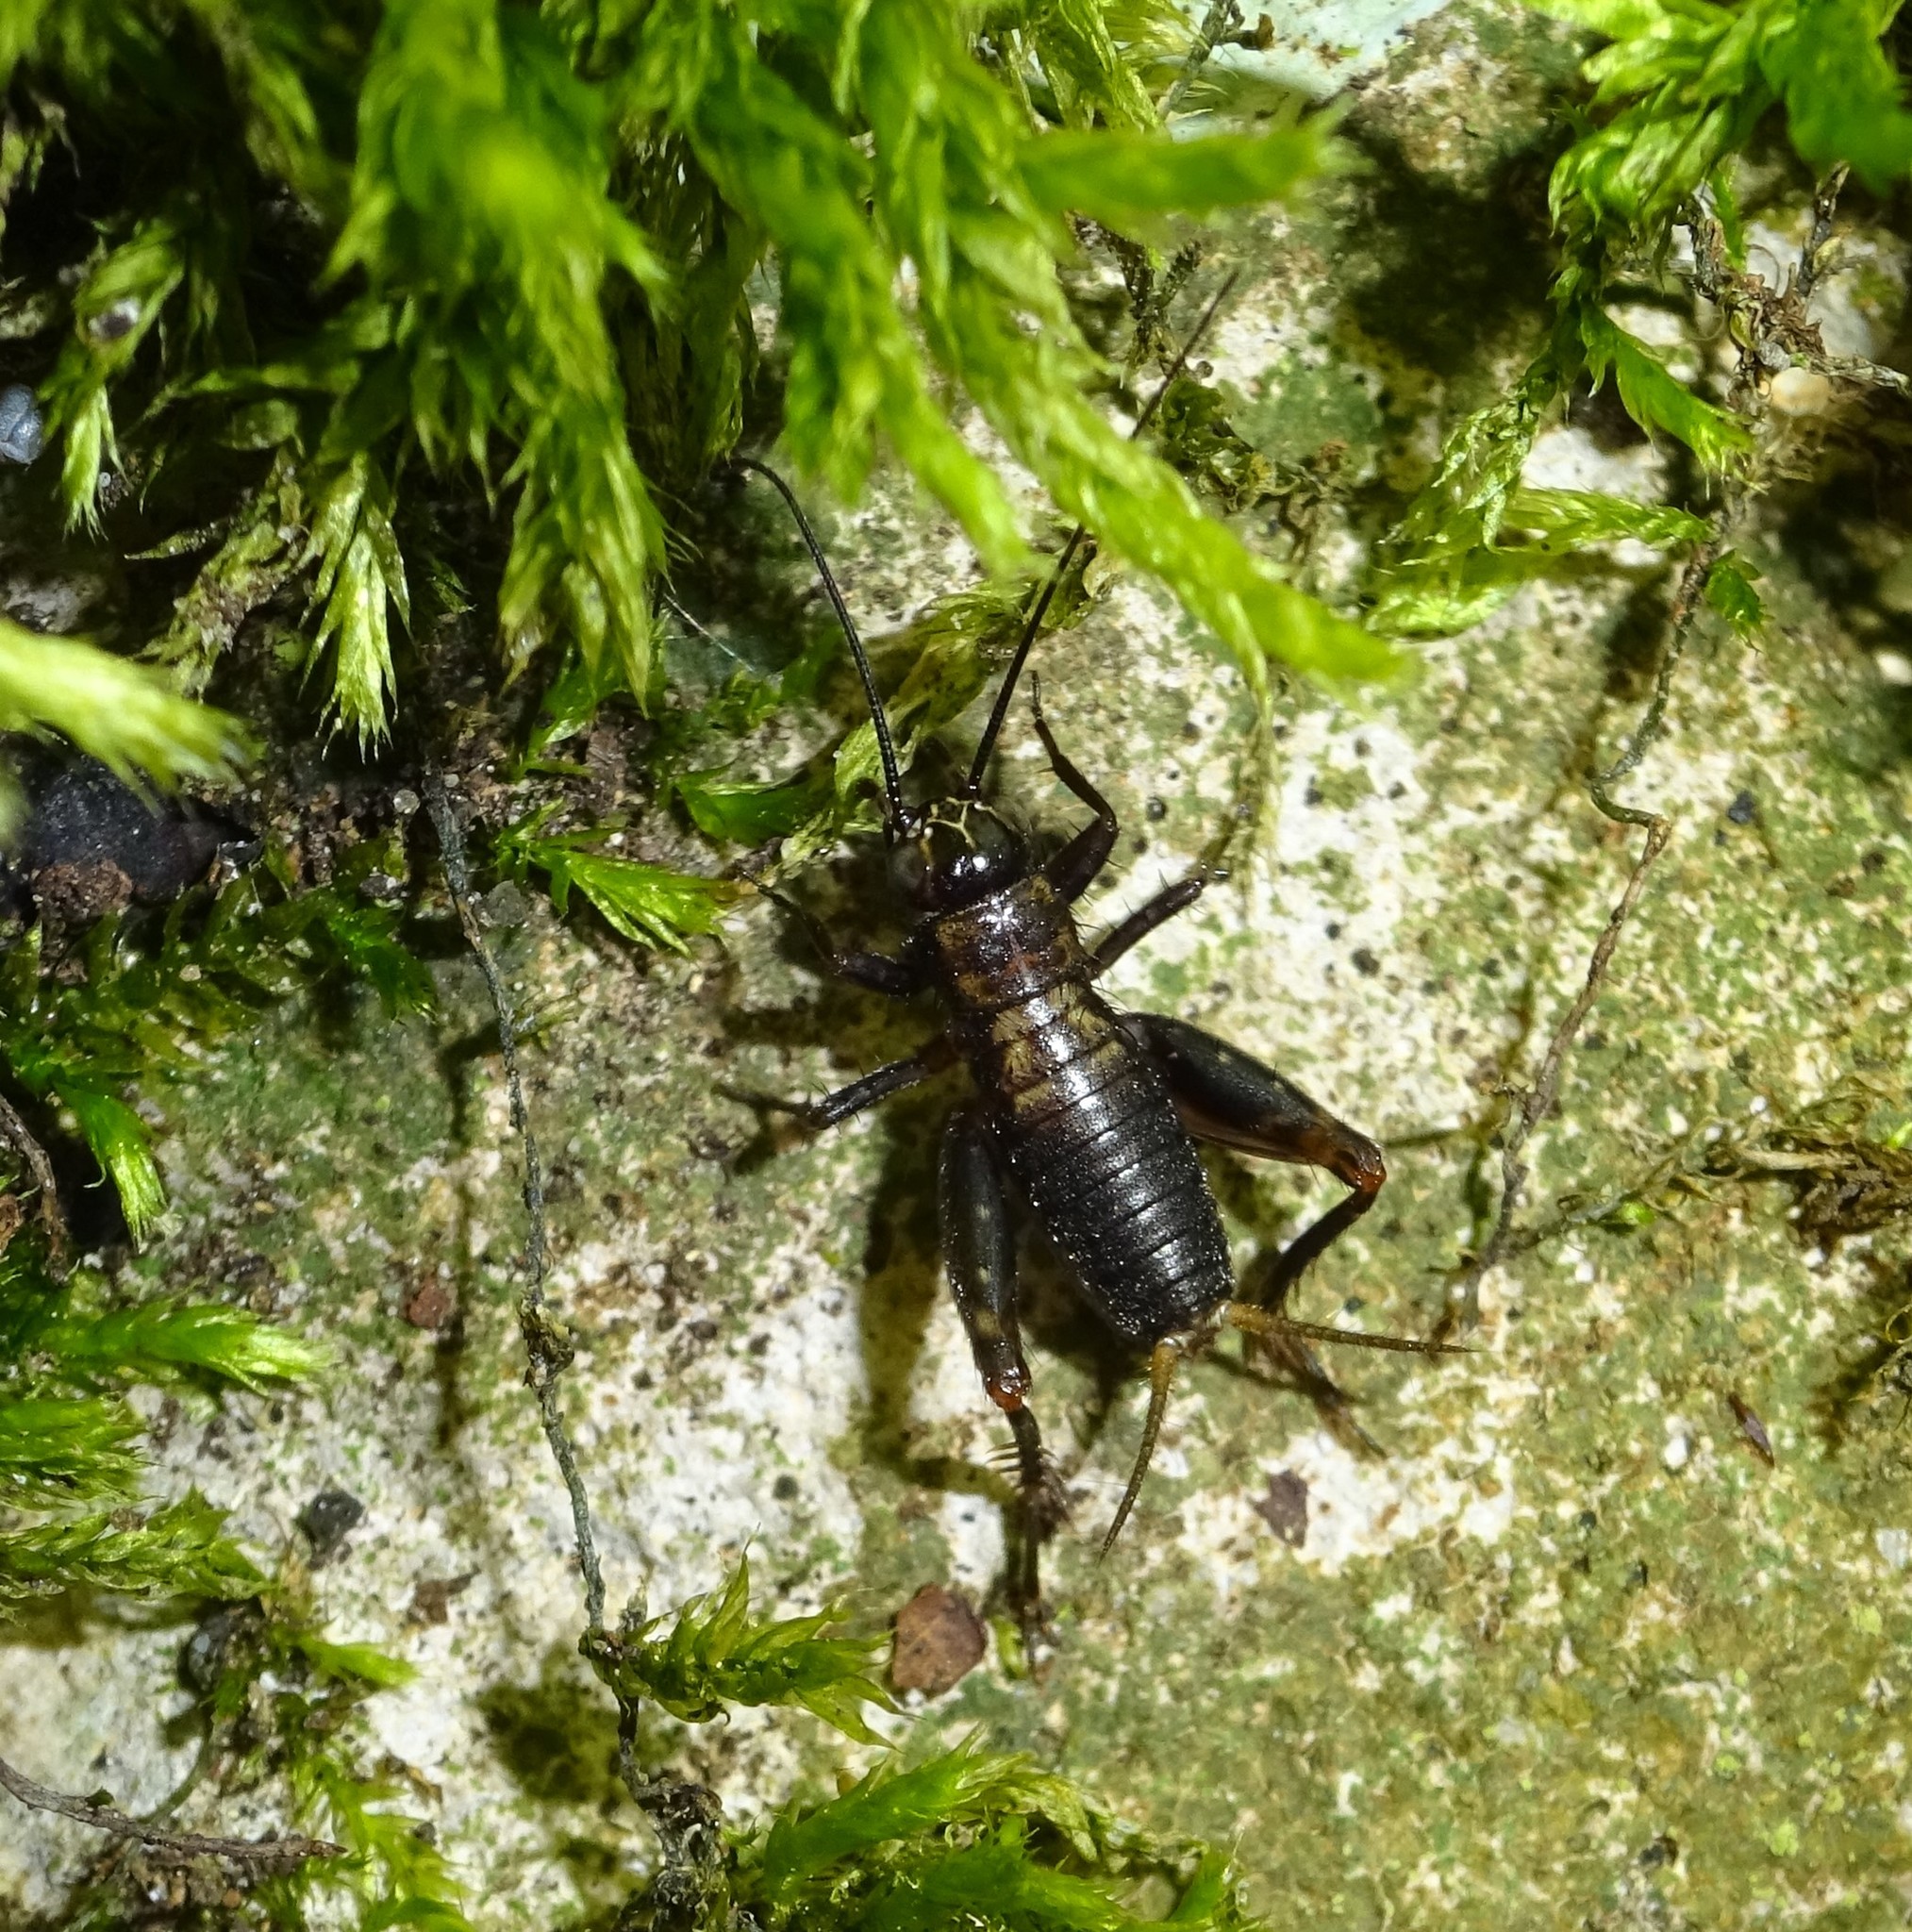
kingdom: Animalia
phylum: Arthropoda
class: Insecta
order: Orthoptera
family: Trigonidiidae
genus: Nemobius
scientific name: Nemobius sylvestris
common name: Wood-cricket
